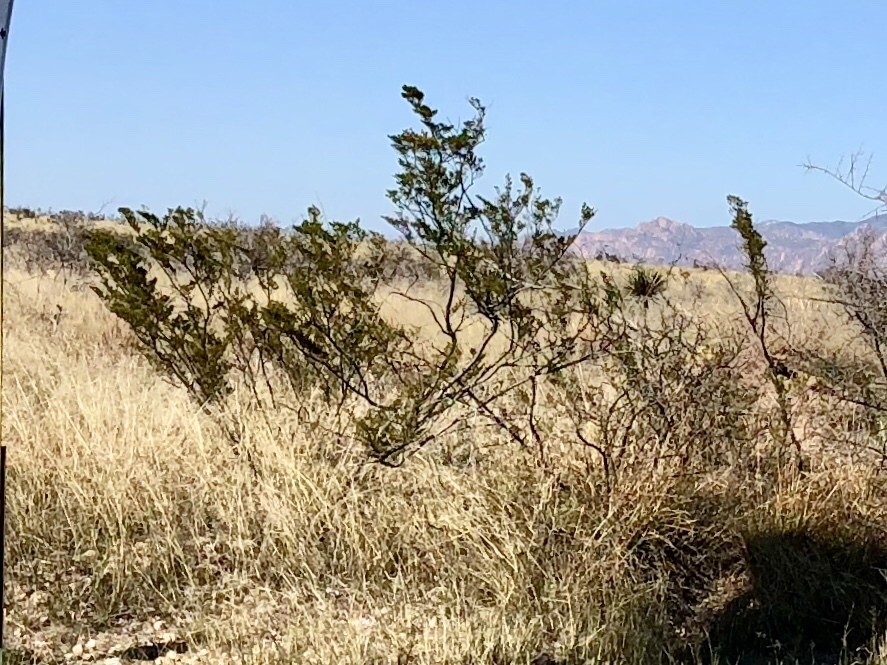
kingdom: Plantae
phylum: Tracheophyta
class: Magnoliopsida
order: Zygophyllales
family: Zygophyllaceae
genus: Larrea
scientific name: Larrea tridentata
